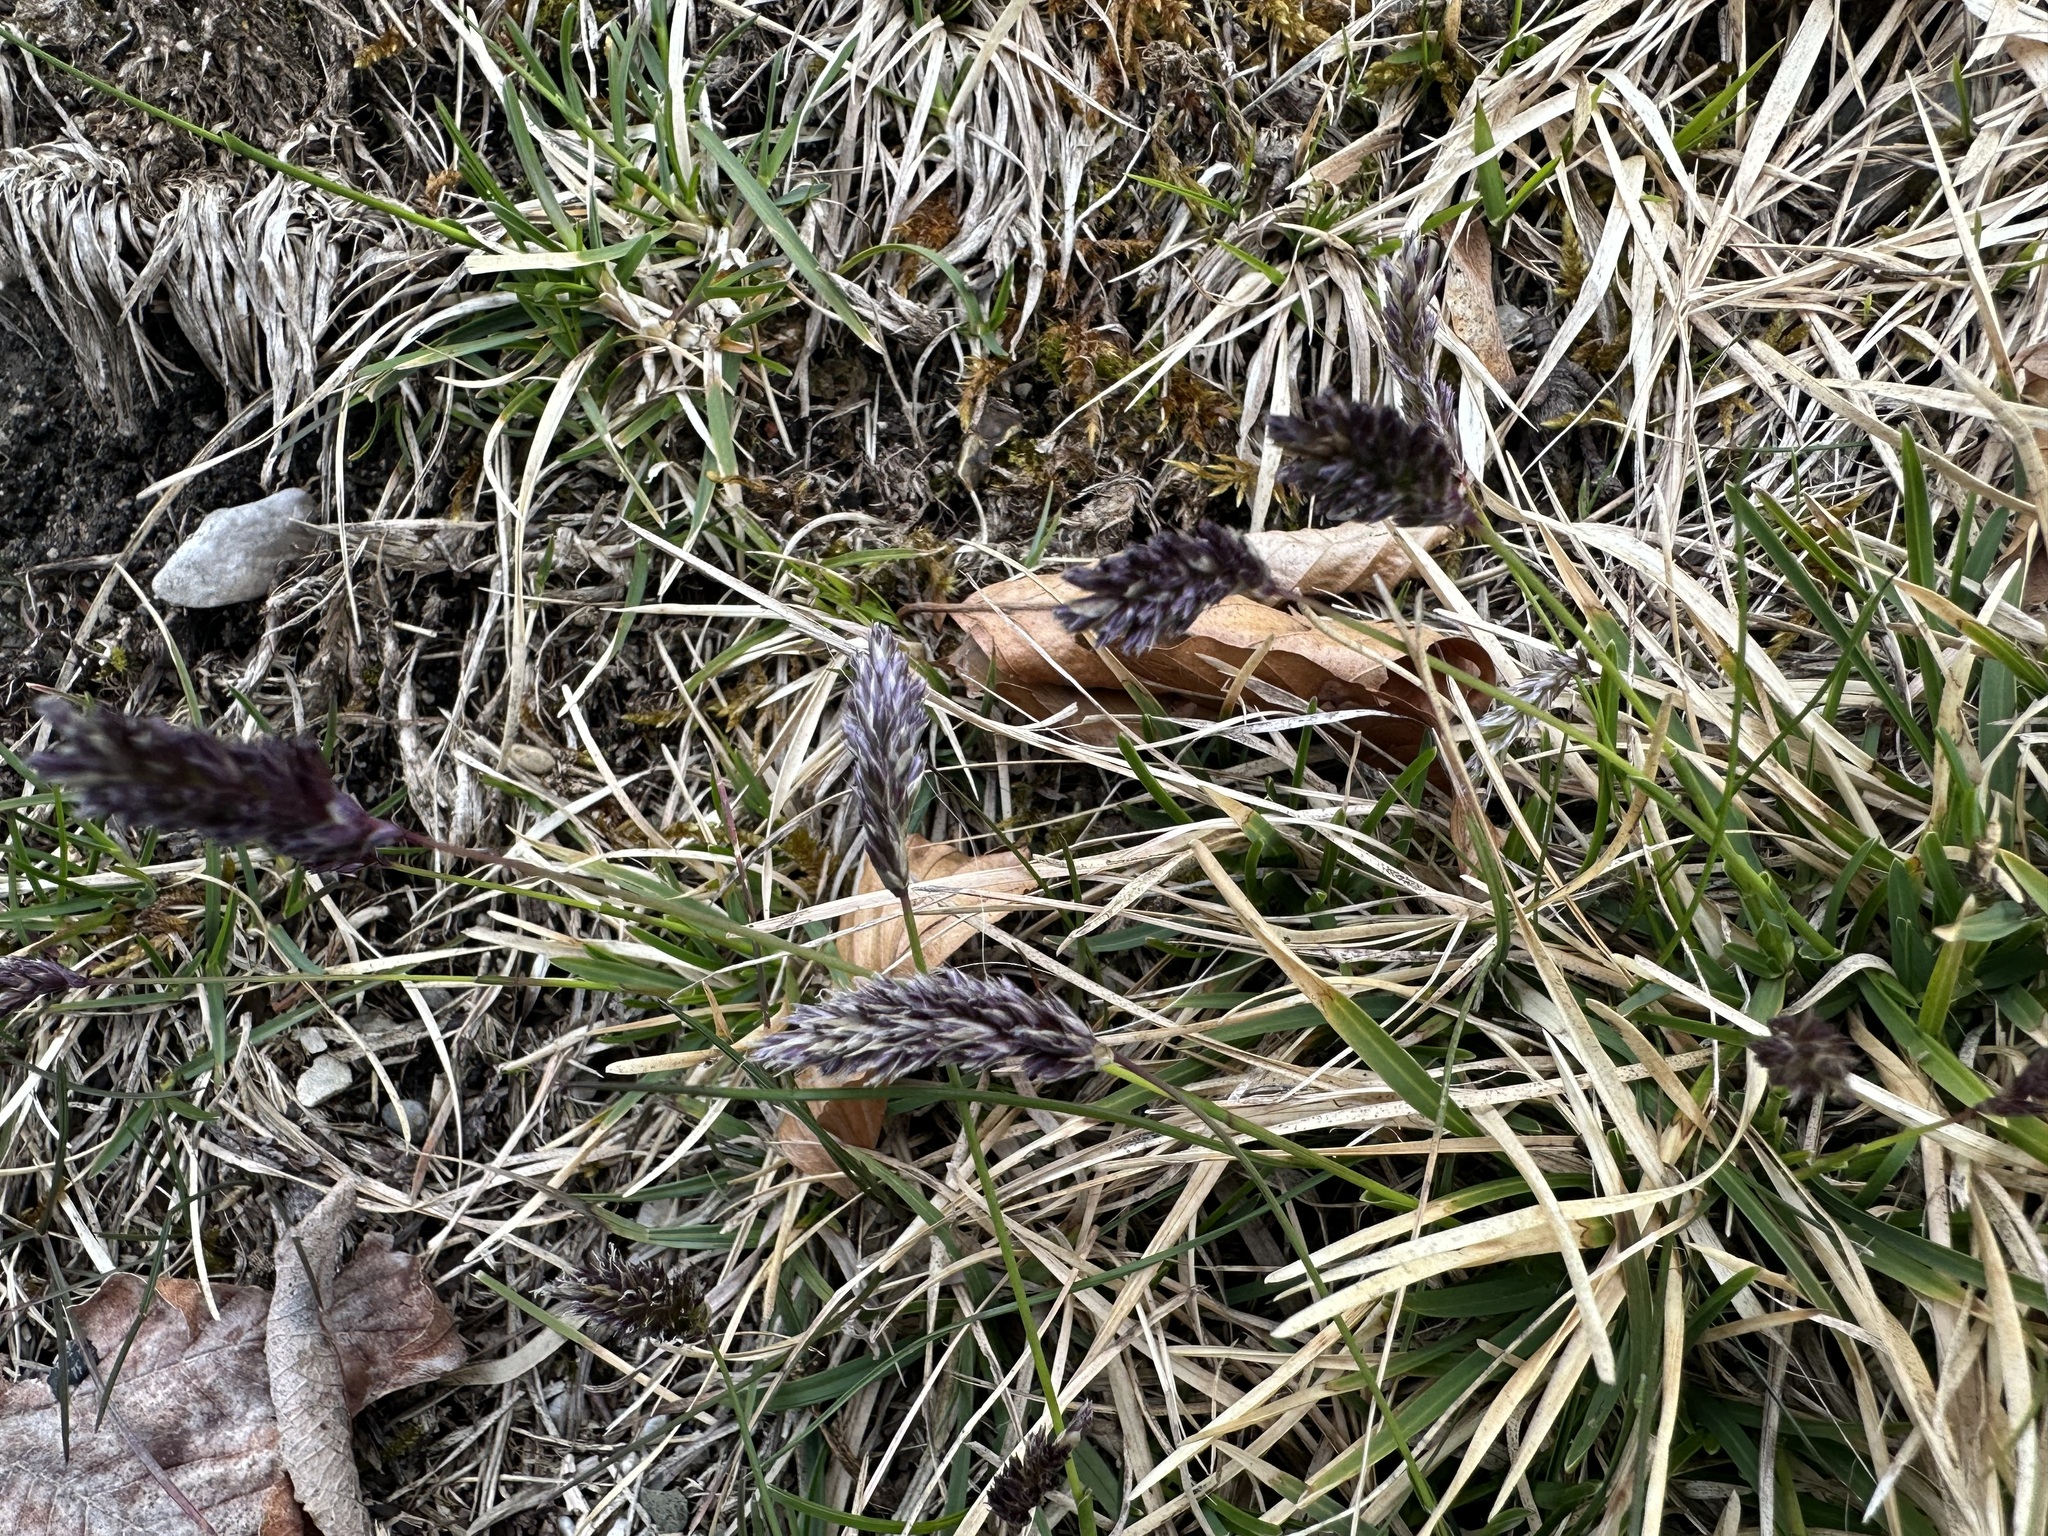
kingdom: Plantae
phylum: Tracheophyta
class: Liliopsida
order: Poales
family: Poaceae
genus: Sesleria
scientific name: Sesleria caerulea
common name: Blue moor-grass
